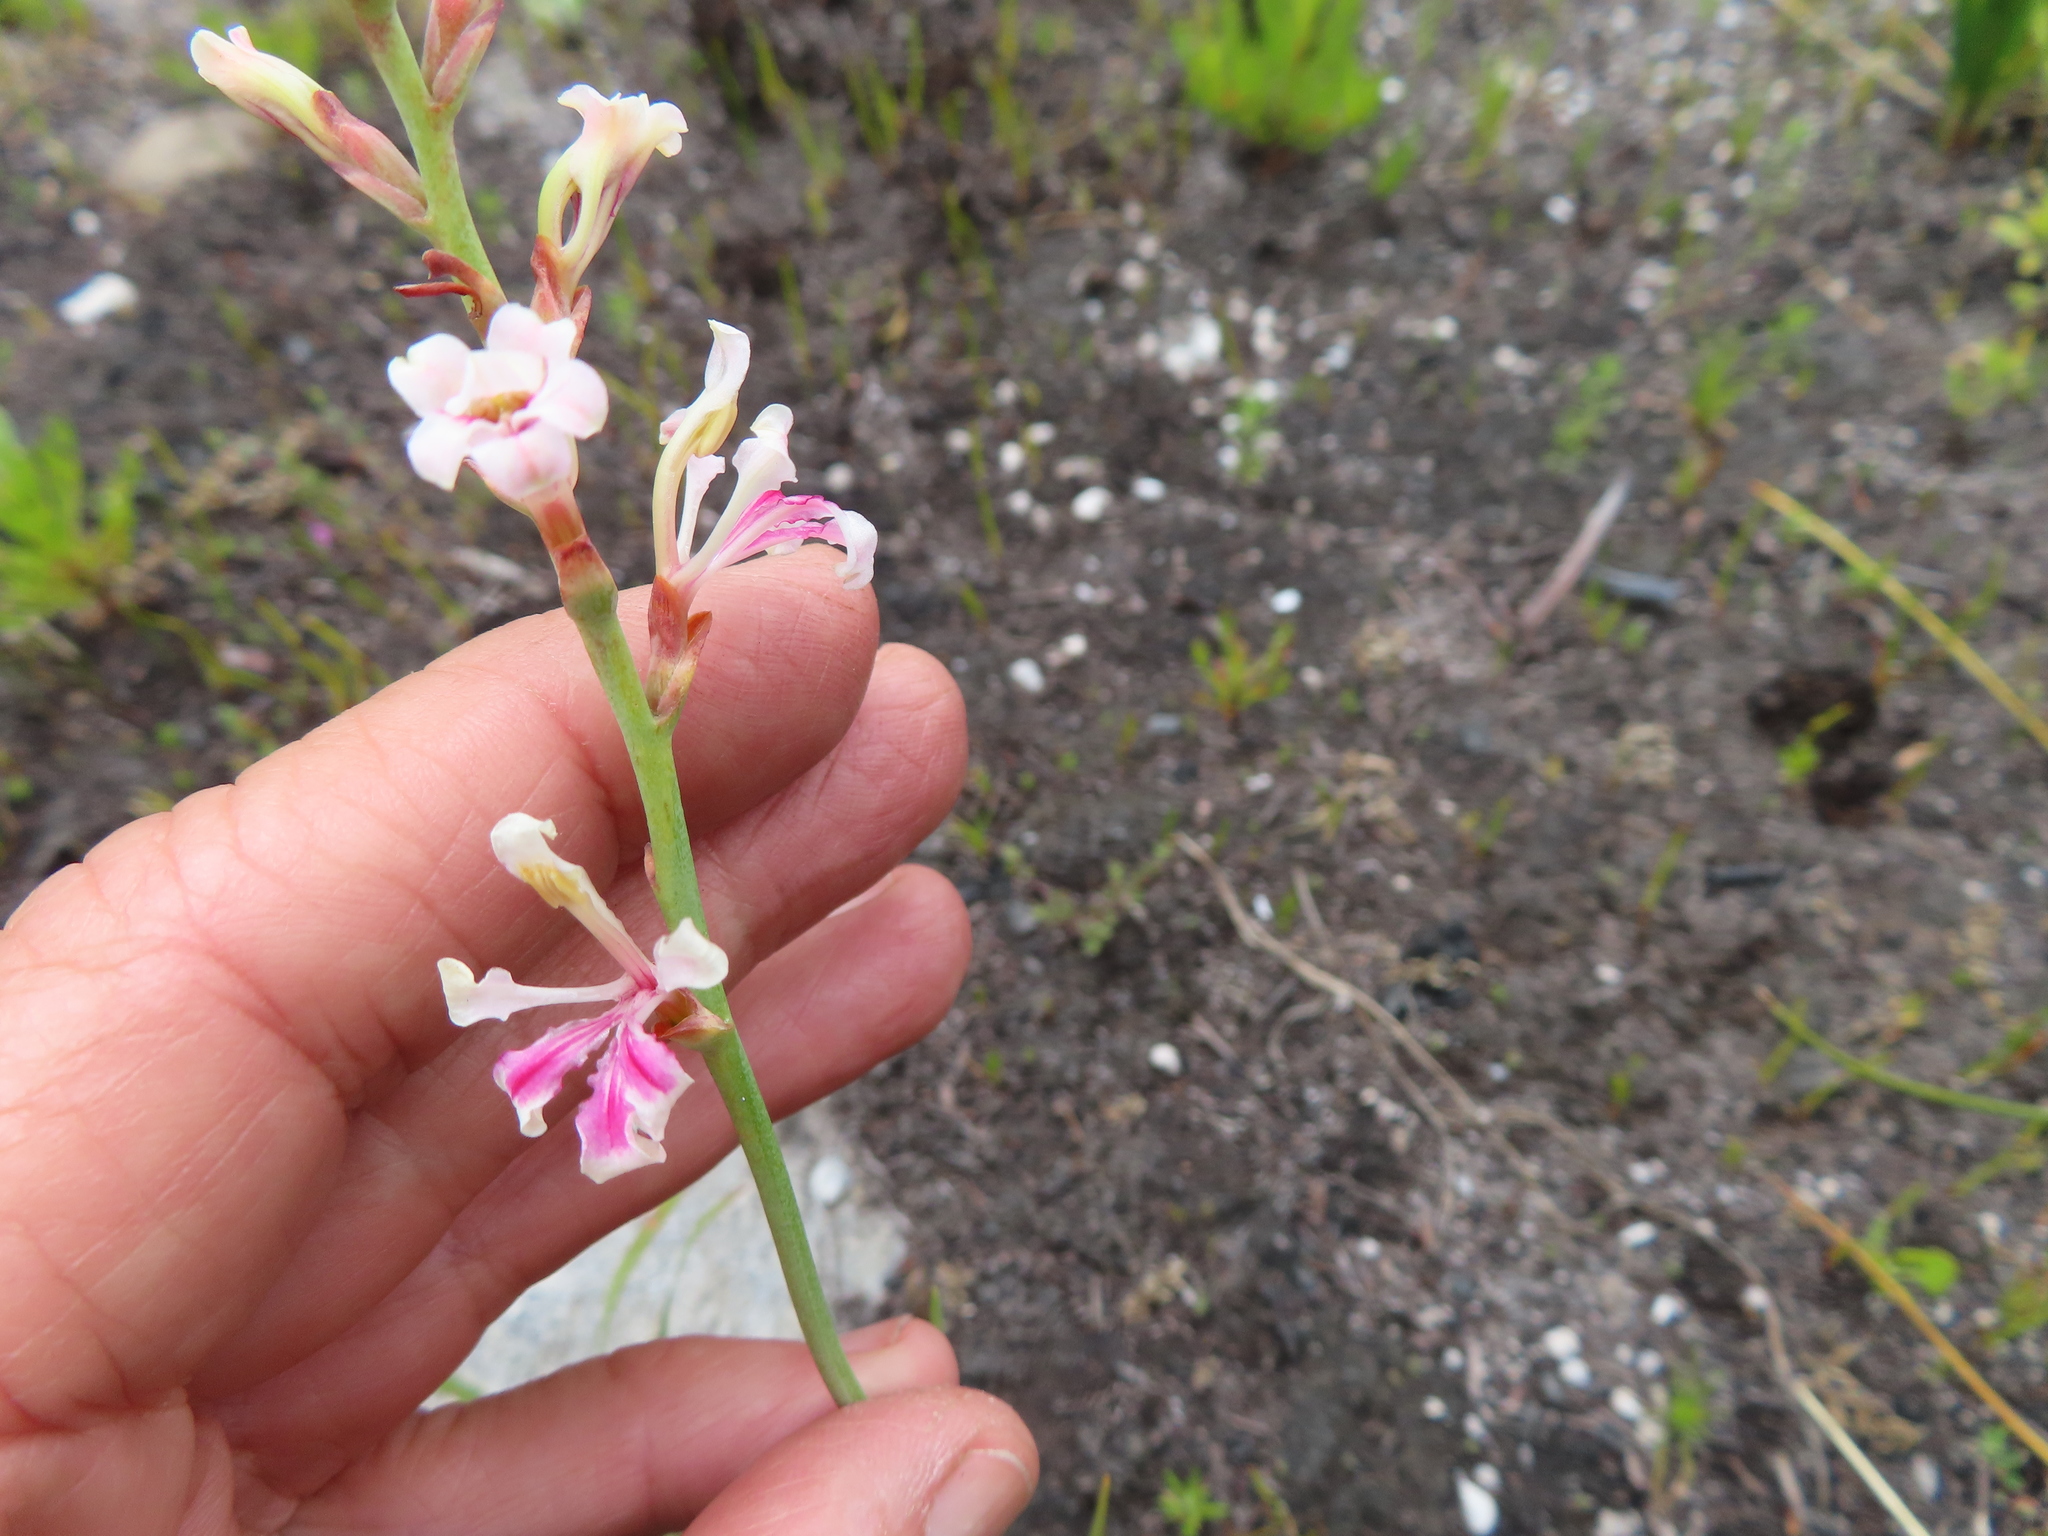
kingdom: Plantae
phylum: Tracheophyta
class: Liliopsida
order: Asparagales
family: Iridaceae
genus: Tritoniopsis
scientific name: Tritoniopsis unguicularis
